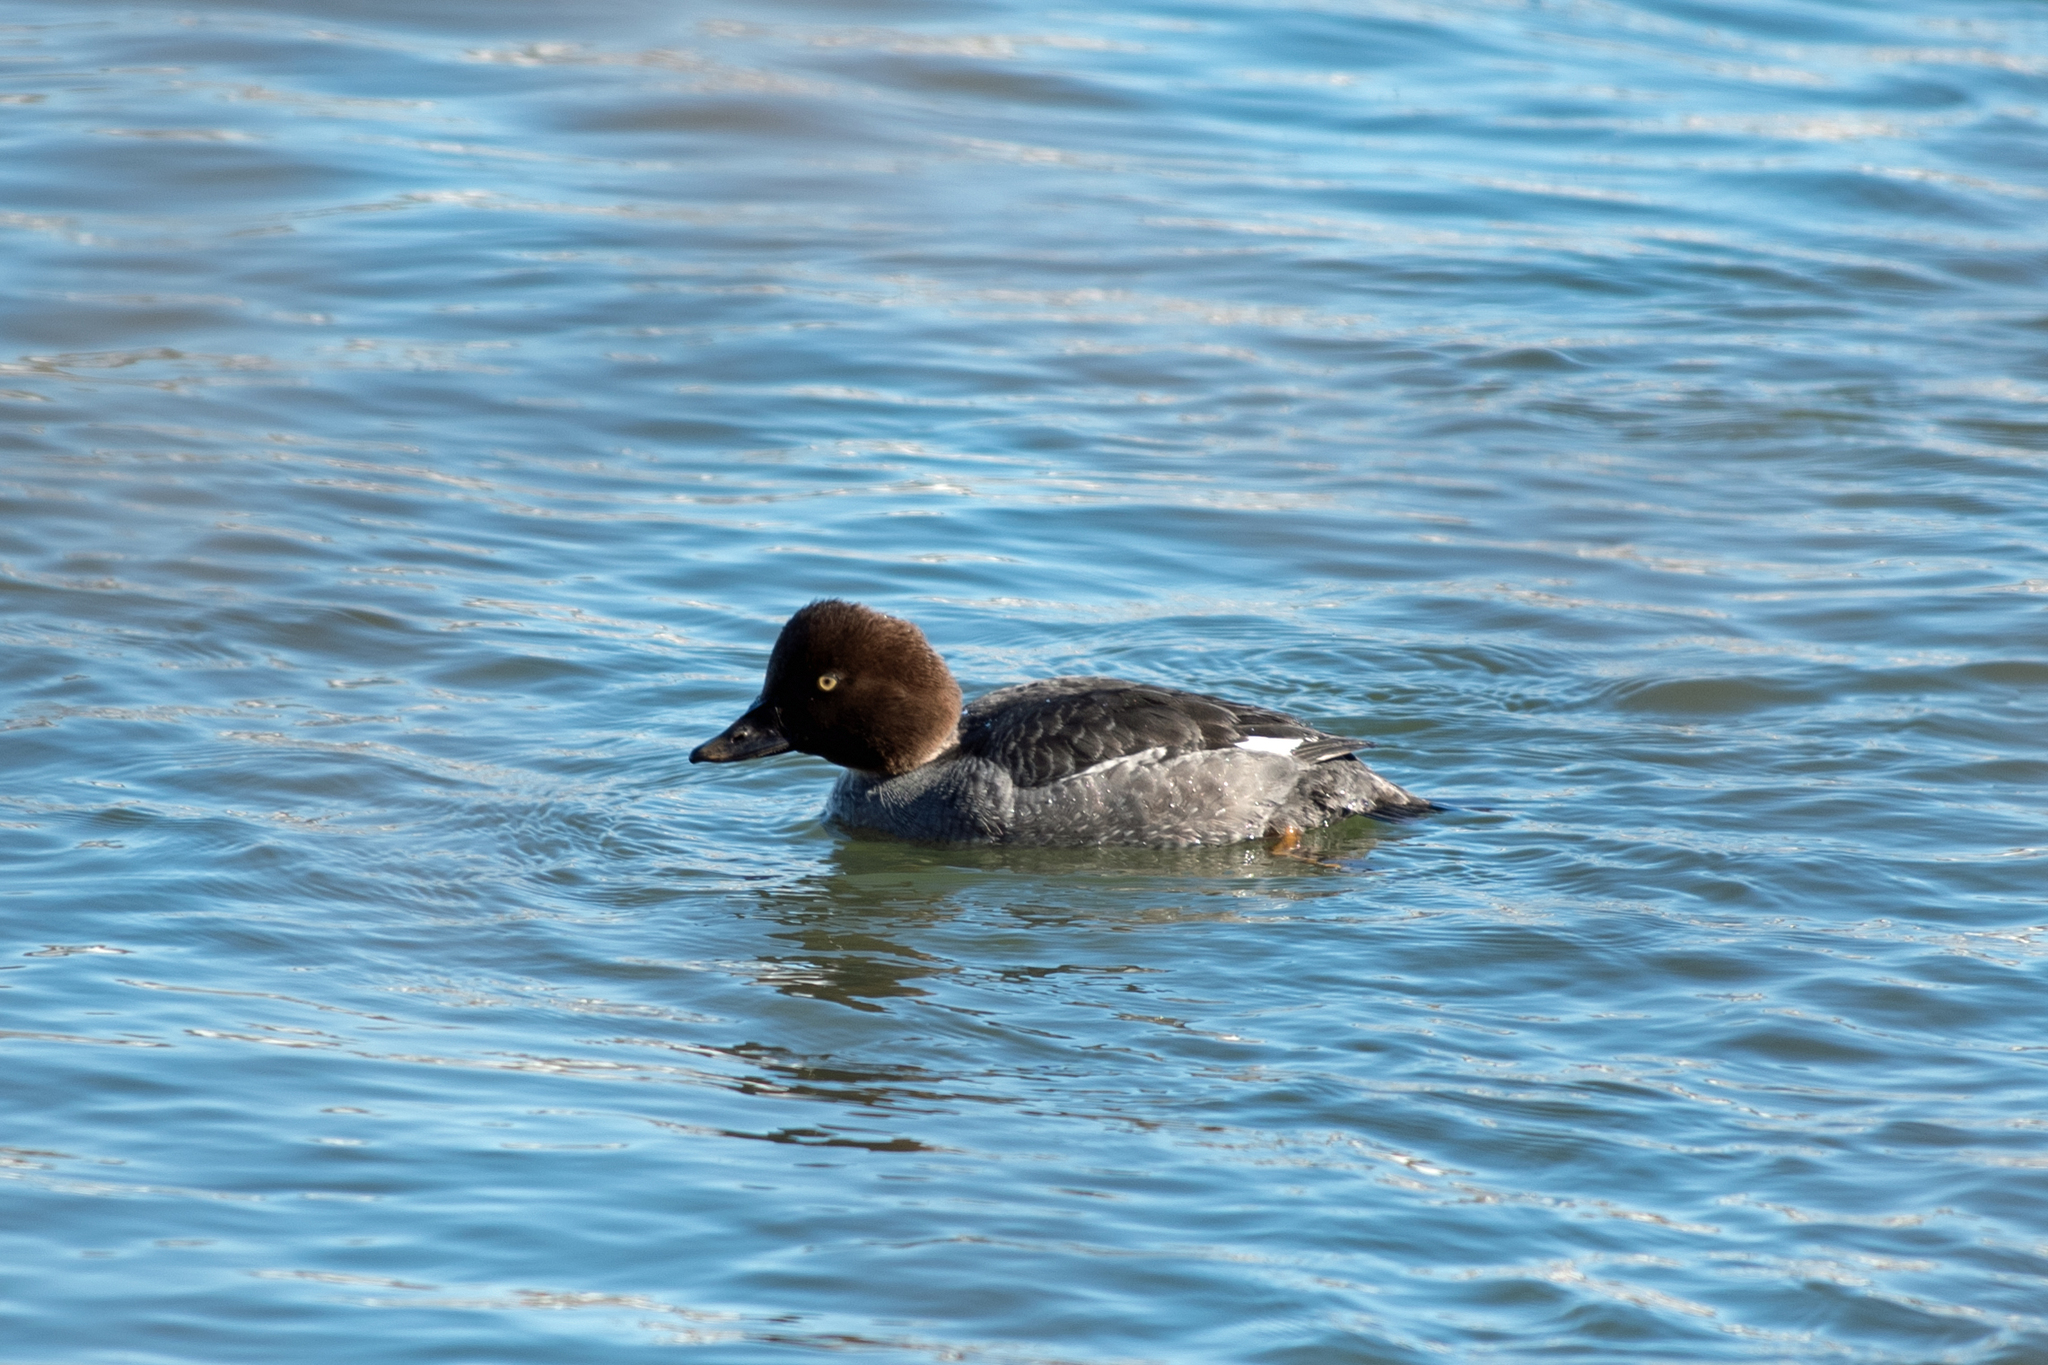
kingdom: Animalia
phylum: Chordata
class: Aves
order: Anseriformes
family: Anatidae
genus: Bucephala
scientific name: Bucephala clangula
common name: Common goldeneye
